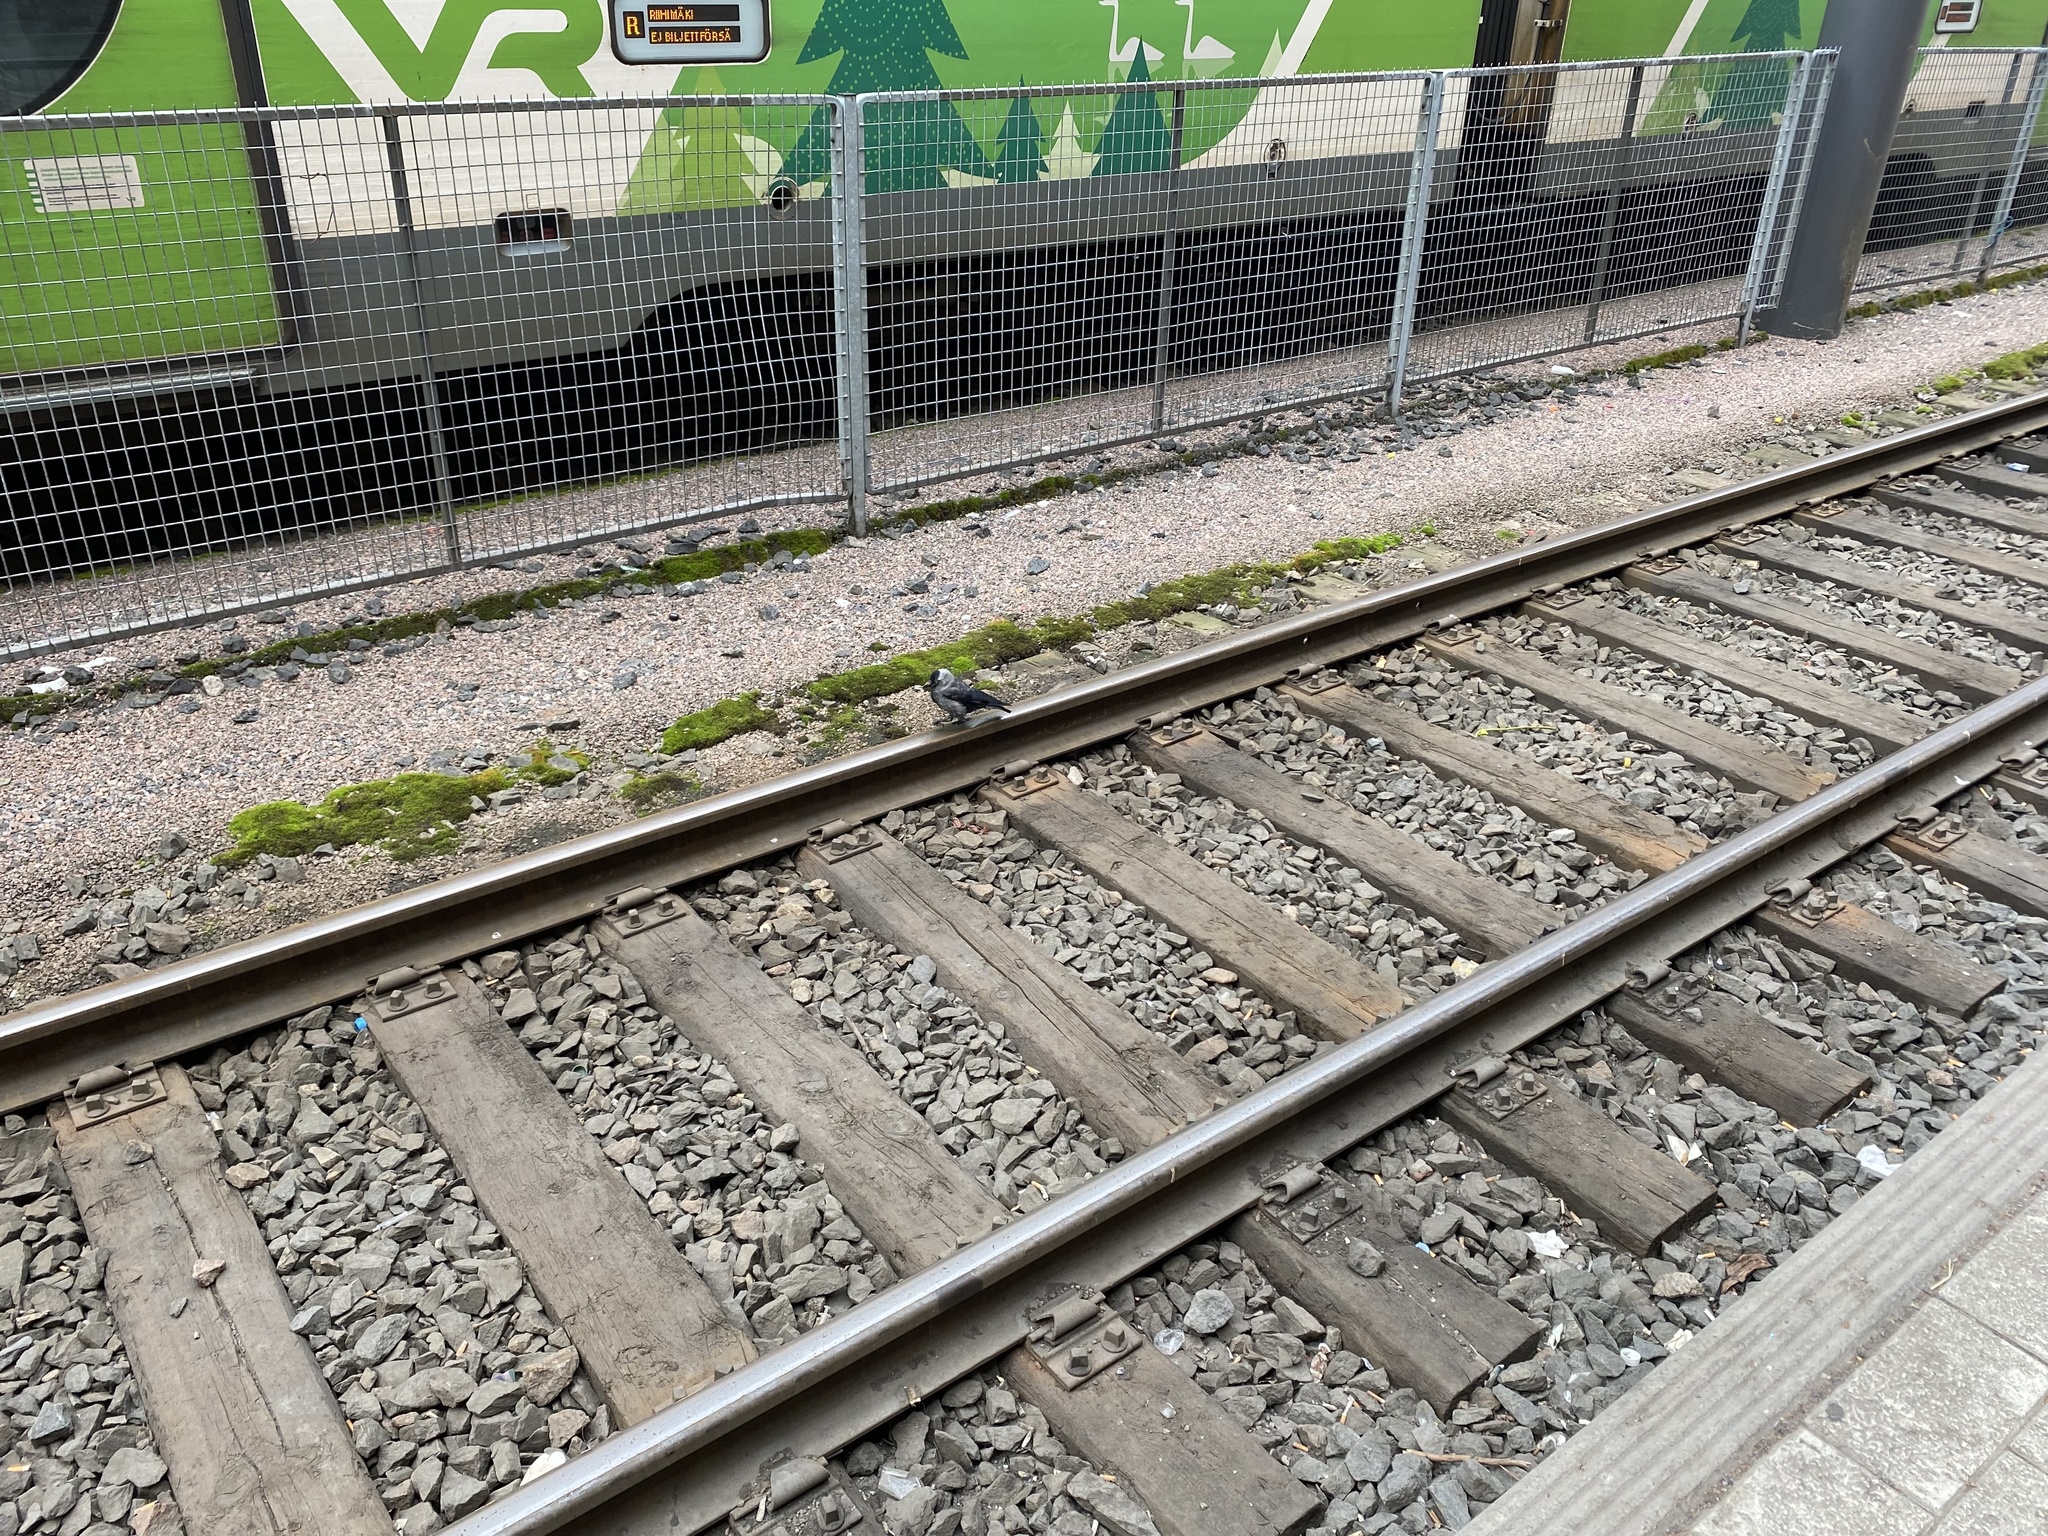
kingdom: Animalia
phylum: Chordata
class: Aves
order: Passeriformes
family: Corvidae
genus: Coloeus
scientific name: Coloeus monedula
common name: Western jackdaw
